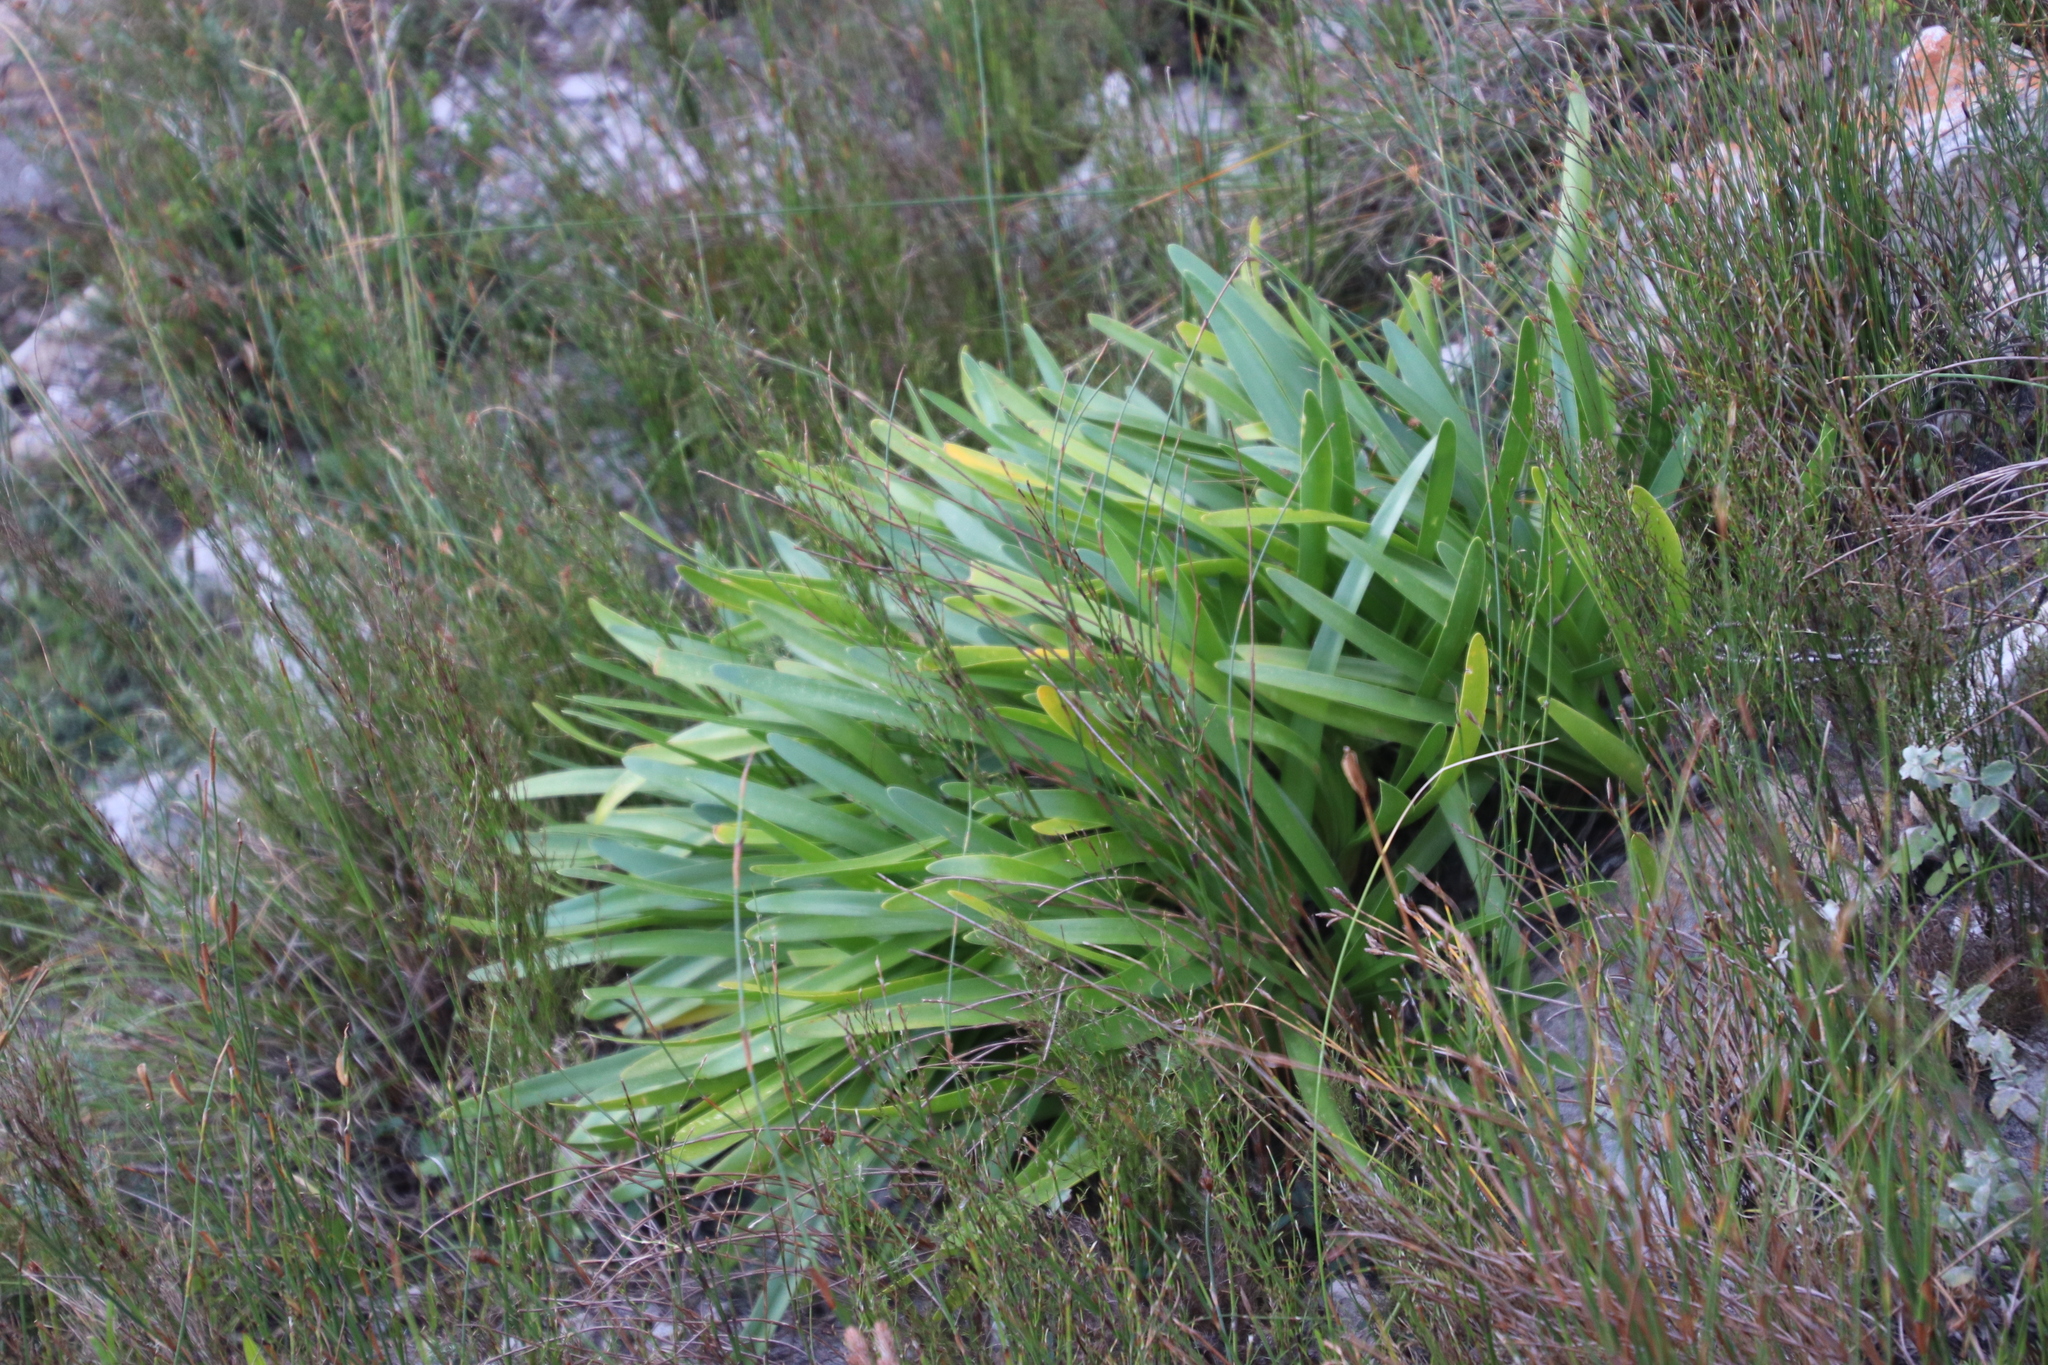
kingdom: Plantae
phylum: Tracheophyta
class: Liliopsida
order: Asparagales
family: Amaryllidaceae
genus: Agapanthus
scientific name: Agapanthus africanus
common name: Lily-of-the-nile
